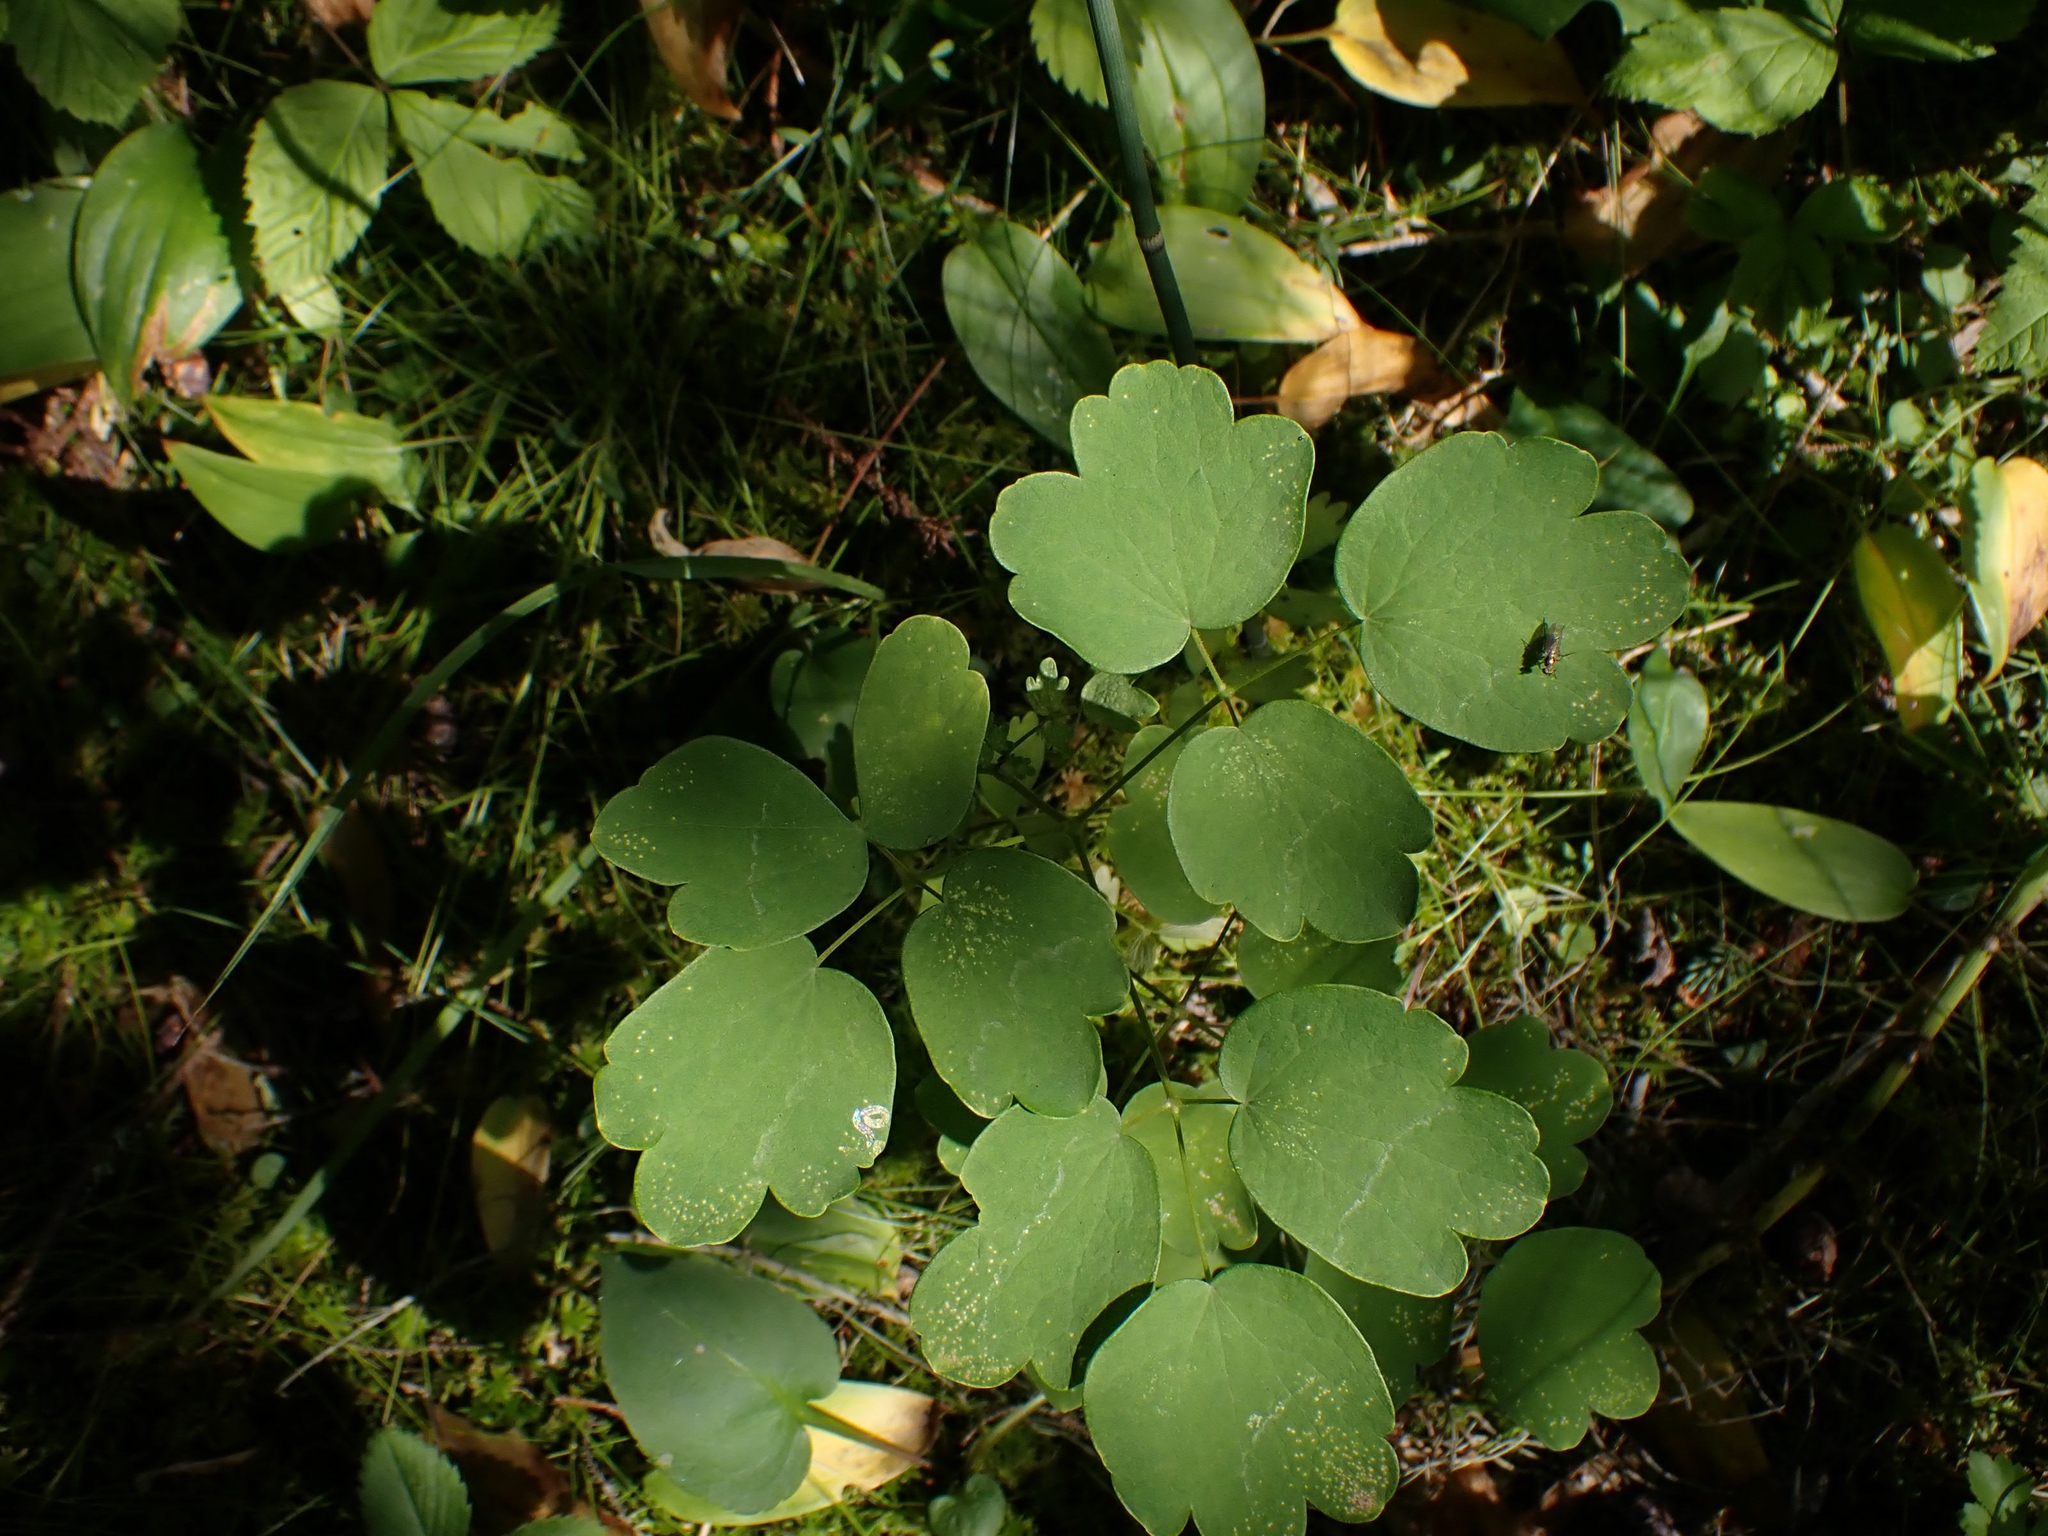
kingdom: Plantae
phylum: Tracheophyta
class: Magnoliopsida
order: Ranunculales
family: Ranunculaceae
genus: Thalictrum
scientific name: Thalictrum venulosum
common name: Early meadow-rue
